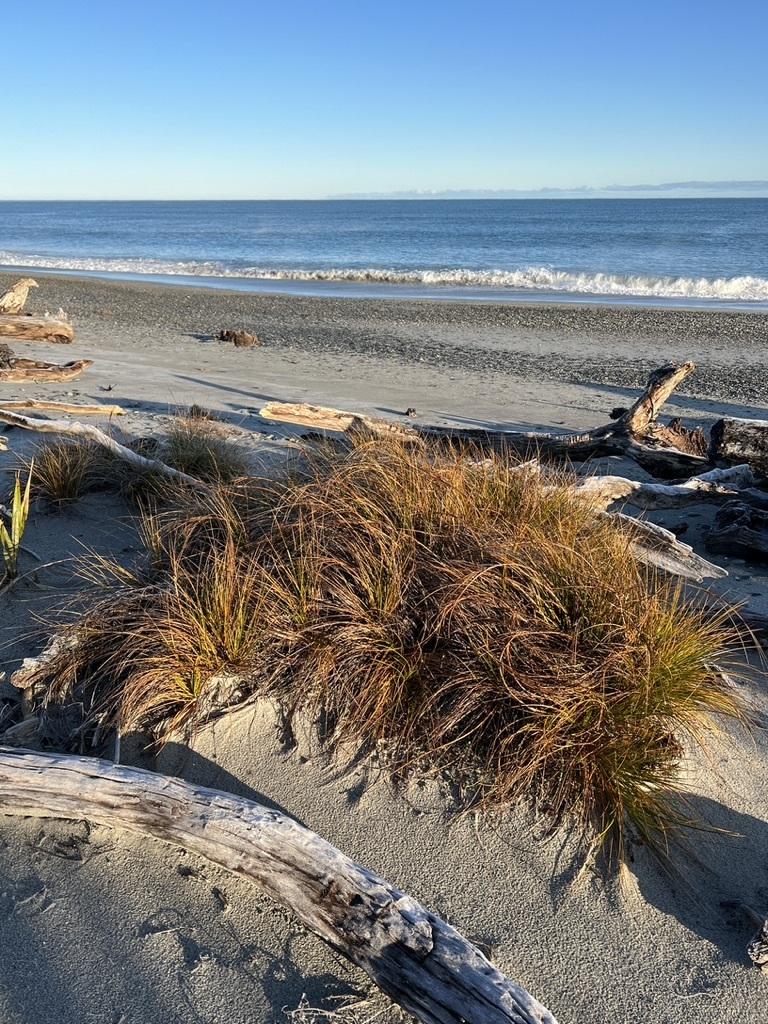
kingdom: Plantae
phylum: Tracheophyta
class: Liliopsida
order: Poales
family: Cyperaceae
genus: Ficinia
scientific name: Ficinia spiralis
